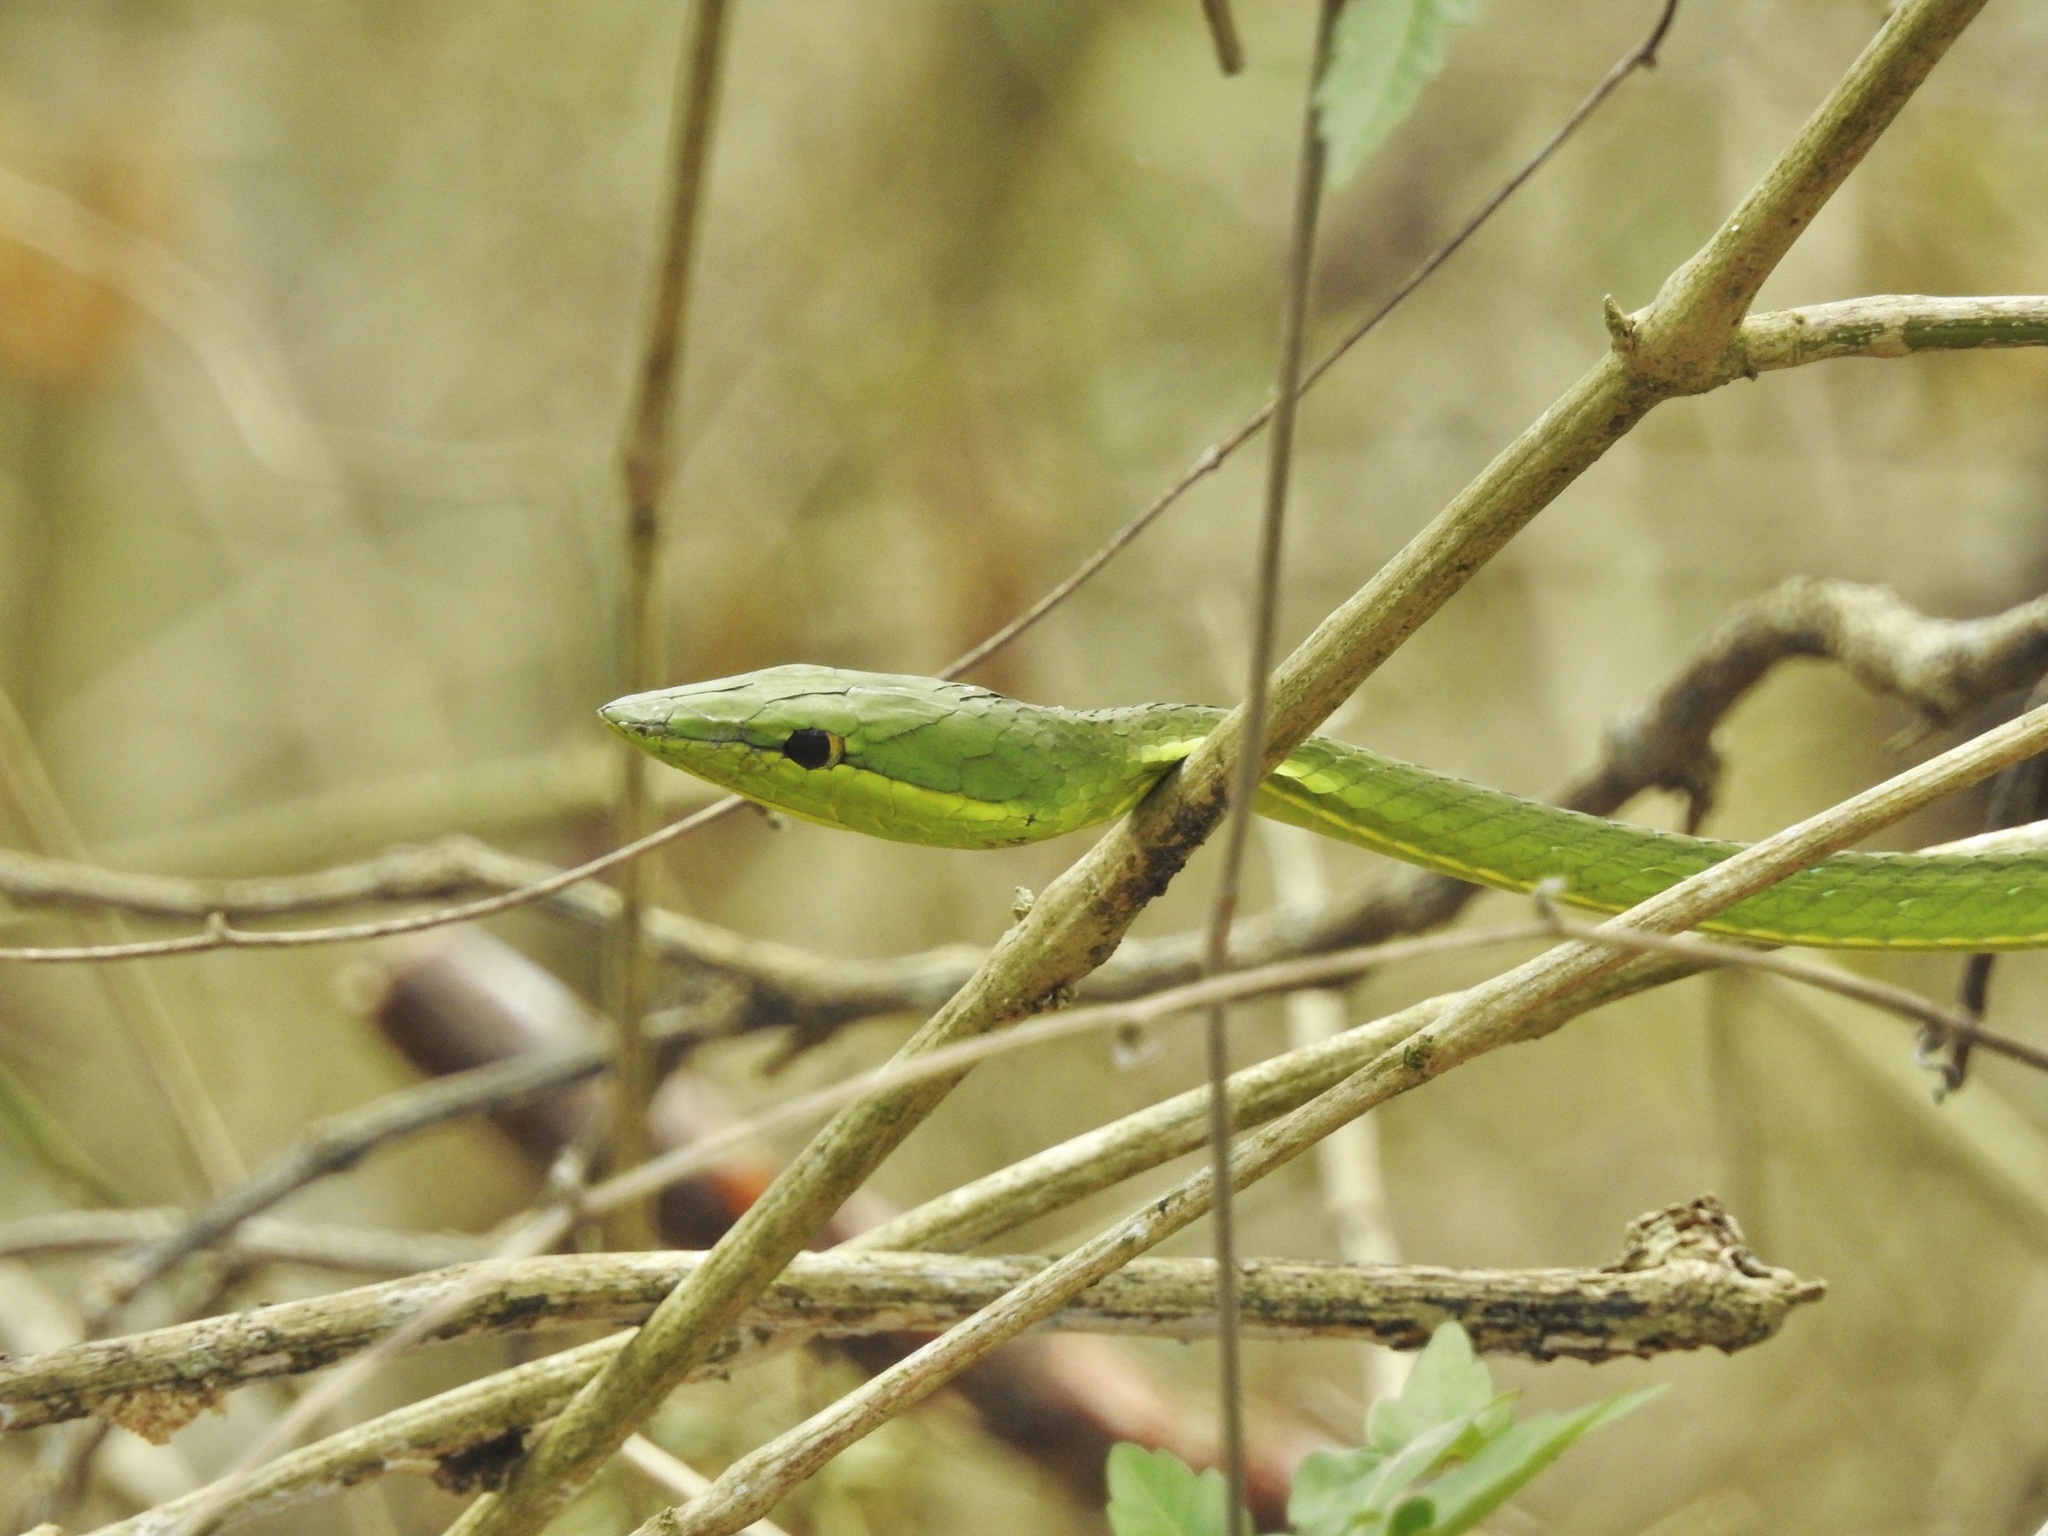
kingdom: Animalia
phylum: Chordata
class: Squamata
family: Colubridae
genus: Oxybelis
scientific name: Oxybelis fulgidus
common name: Green vine snake
